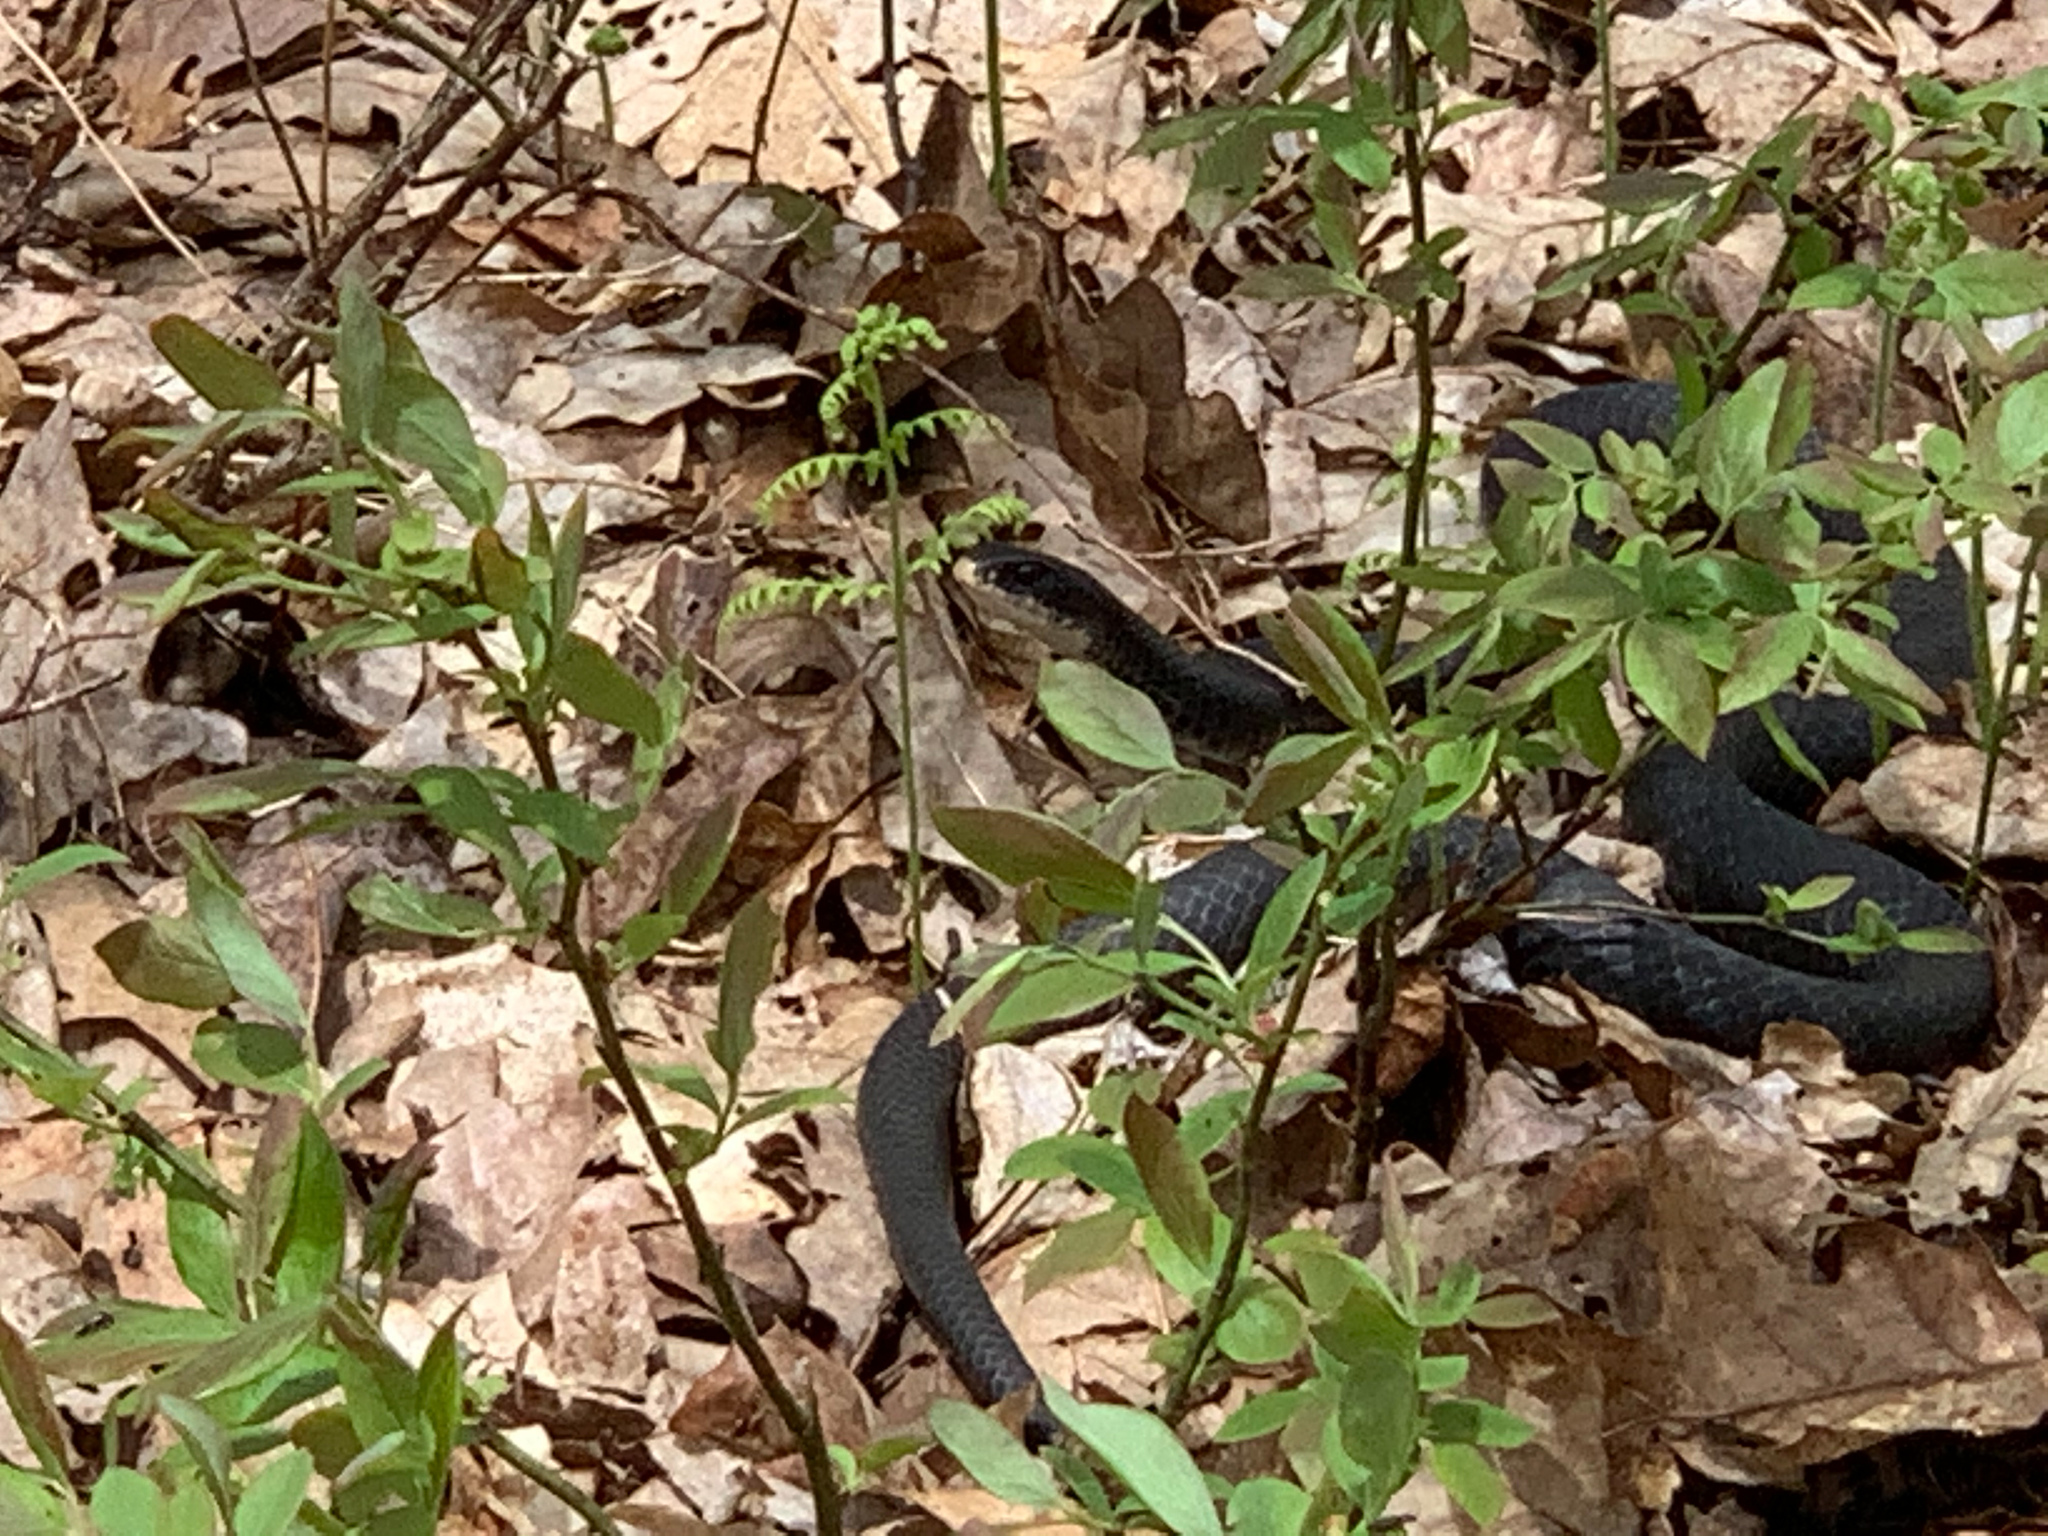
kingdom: Animalia
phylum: Chordata
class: Squamata
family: Colubridae
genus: Coluber
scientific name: Coluber constrictor
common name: Eastern racer
